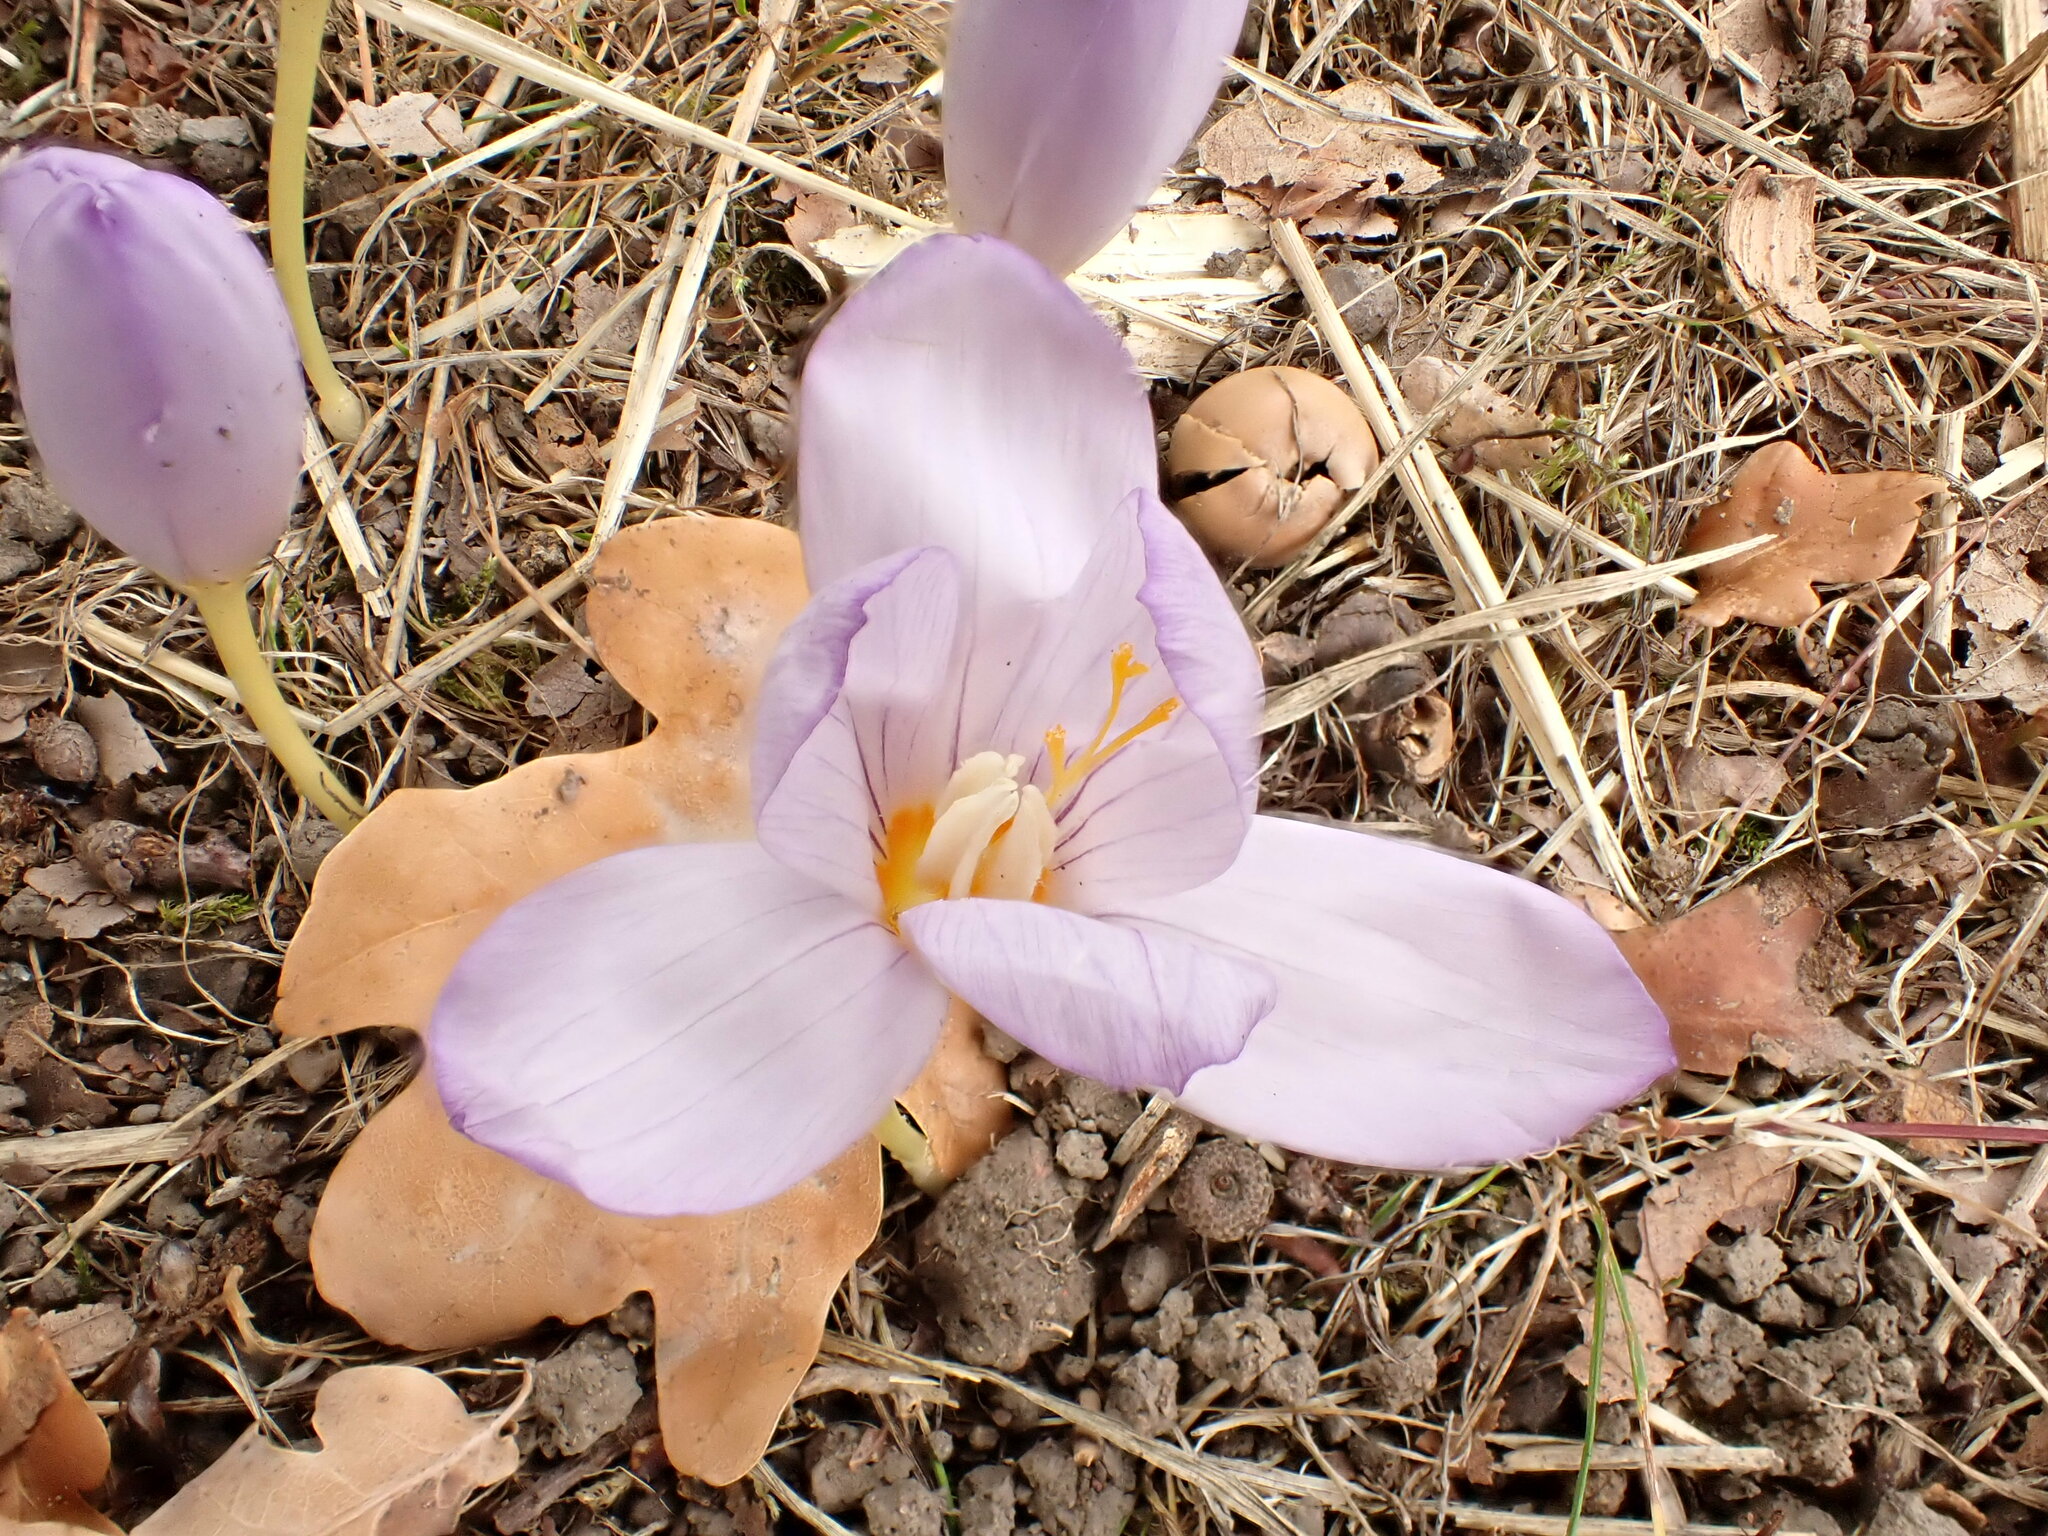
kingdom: Plantae
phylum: Tracheophyta
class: Liliopsida
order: Asparagales
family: Iridaceae
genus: Crocus
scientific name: Crocus kotschyanus
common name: Kotschy's crocus
